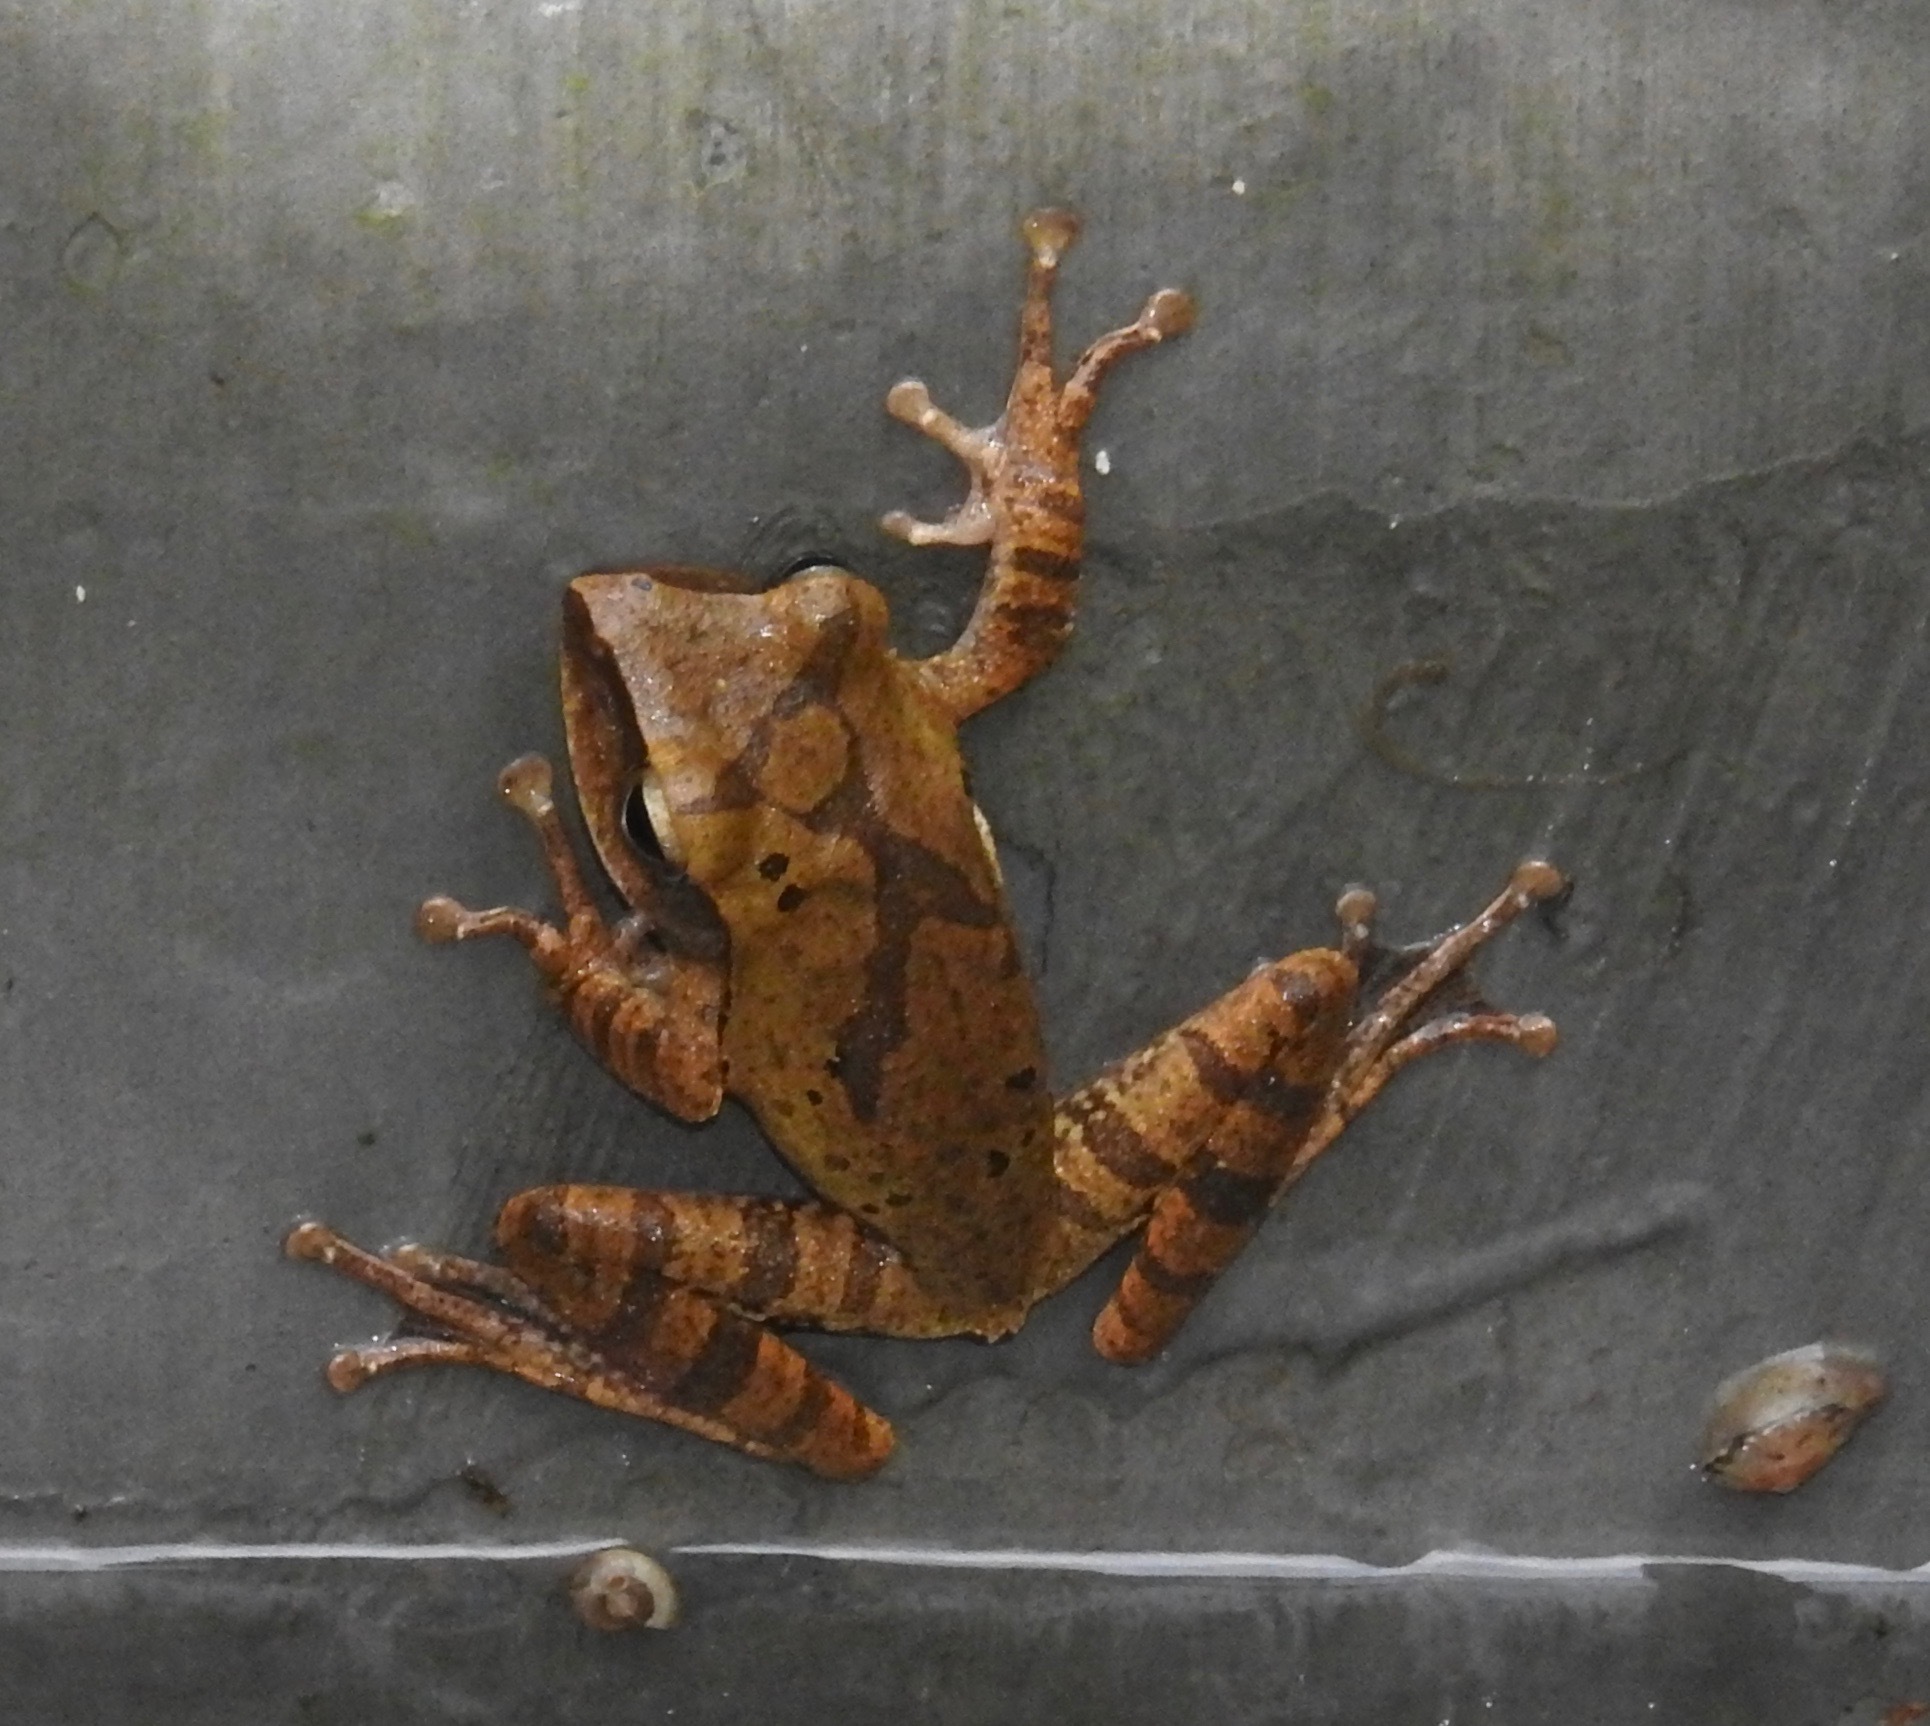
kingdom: Animalia
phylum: Chordata
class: Amphibia
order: Anura
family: Rhacophoridae
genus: Polypedates
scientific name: Polypedates megacephalus
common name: Hong kong whipping frog
